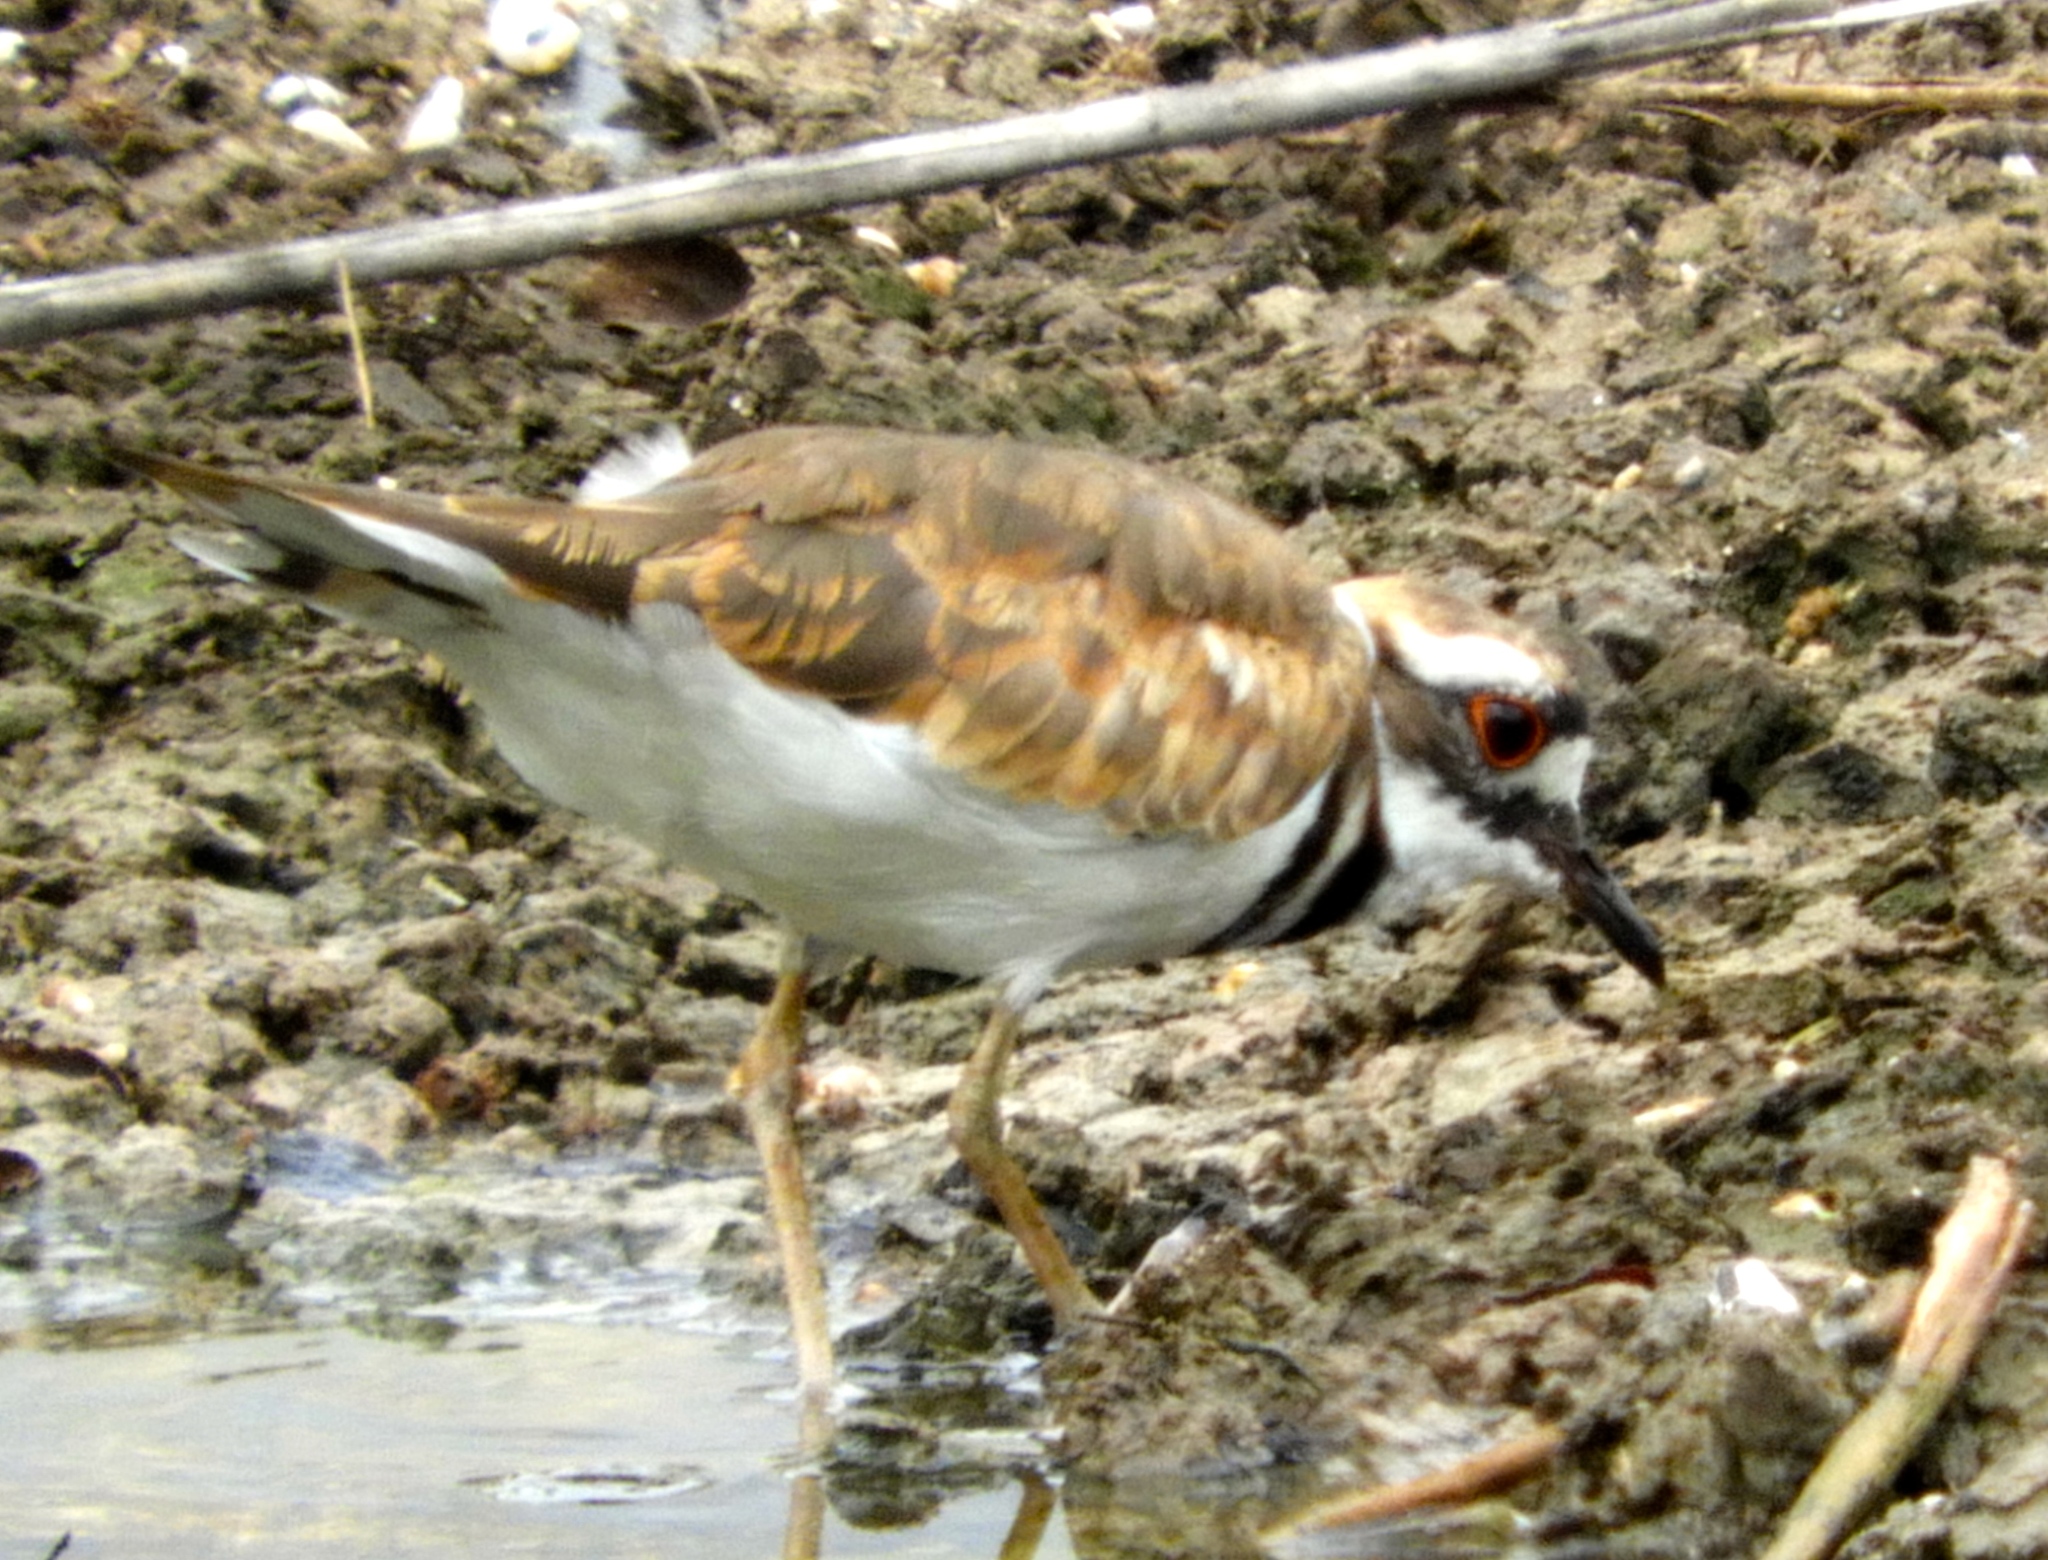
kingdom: Animalia
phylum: Chordata
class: Aves
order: Charadriiformes
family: Charadriidae
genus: Charadrius
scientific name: Charadrius vociferus
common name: Killdeer
